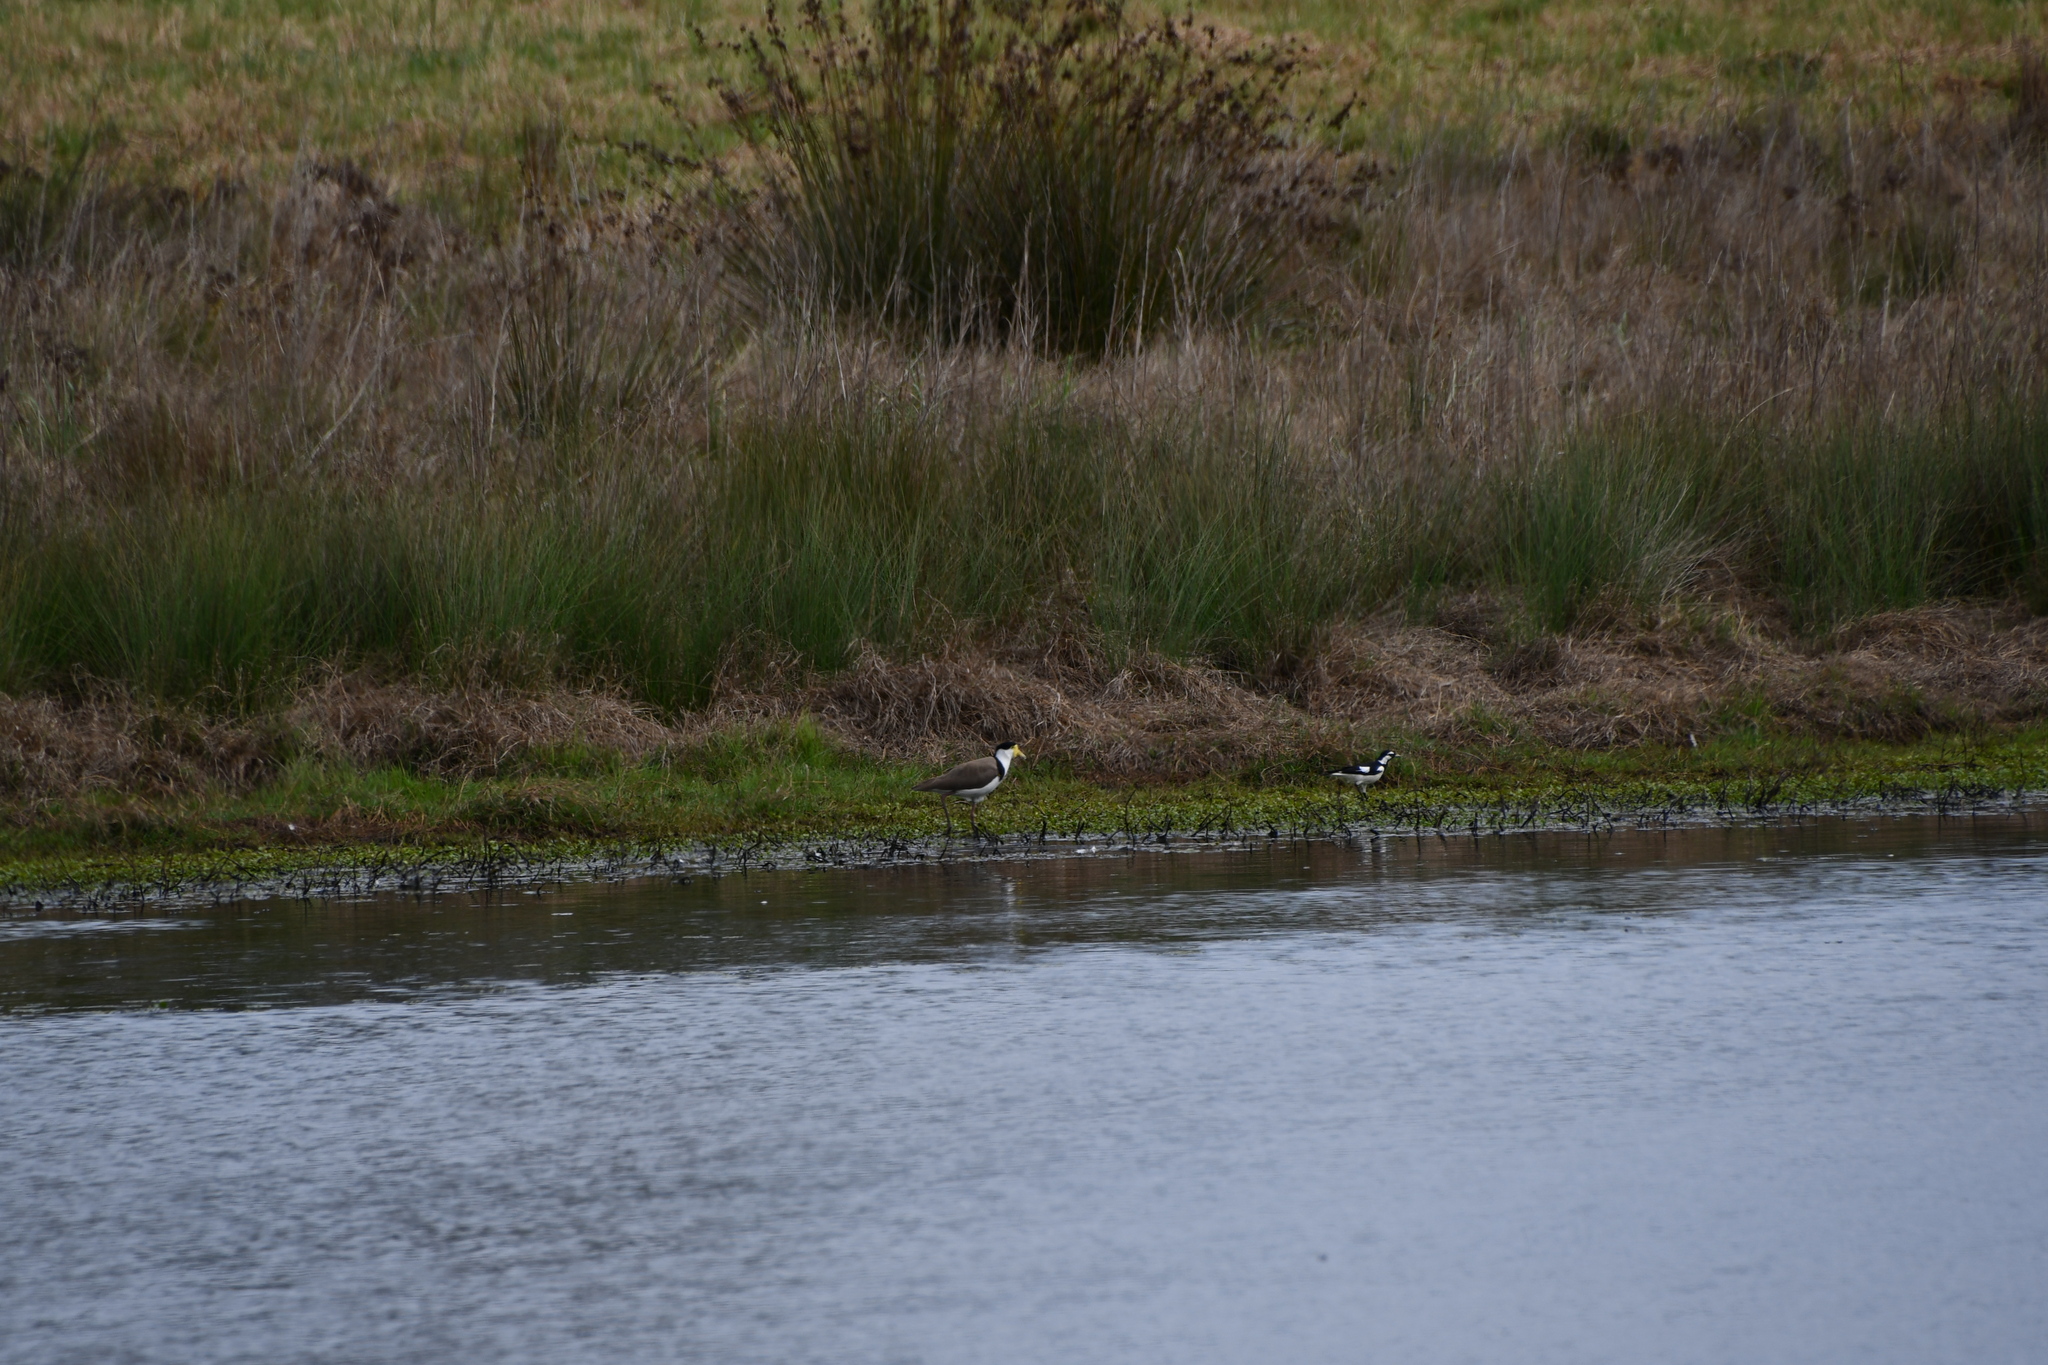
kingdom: Animalia
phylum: Chordata
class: Aves
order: Charadriiformes
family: Charadriidae
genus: Vanellus
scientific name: Vanellus miles
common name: Masked lapwing
